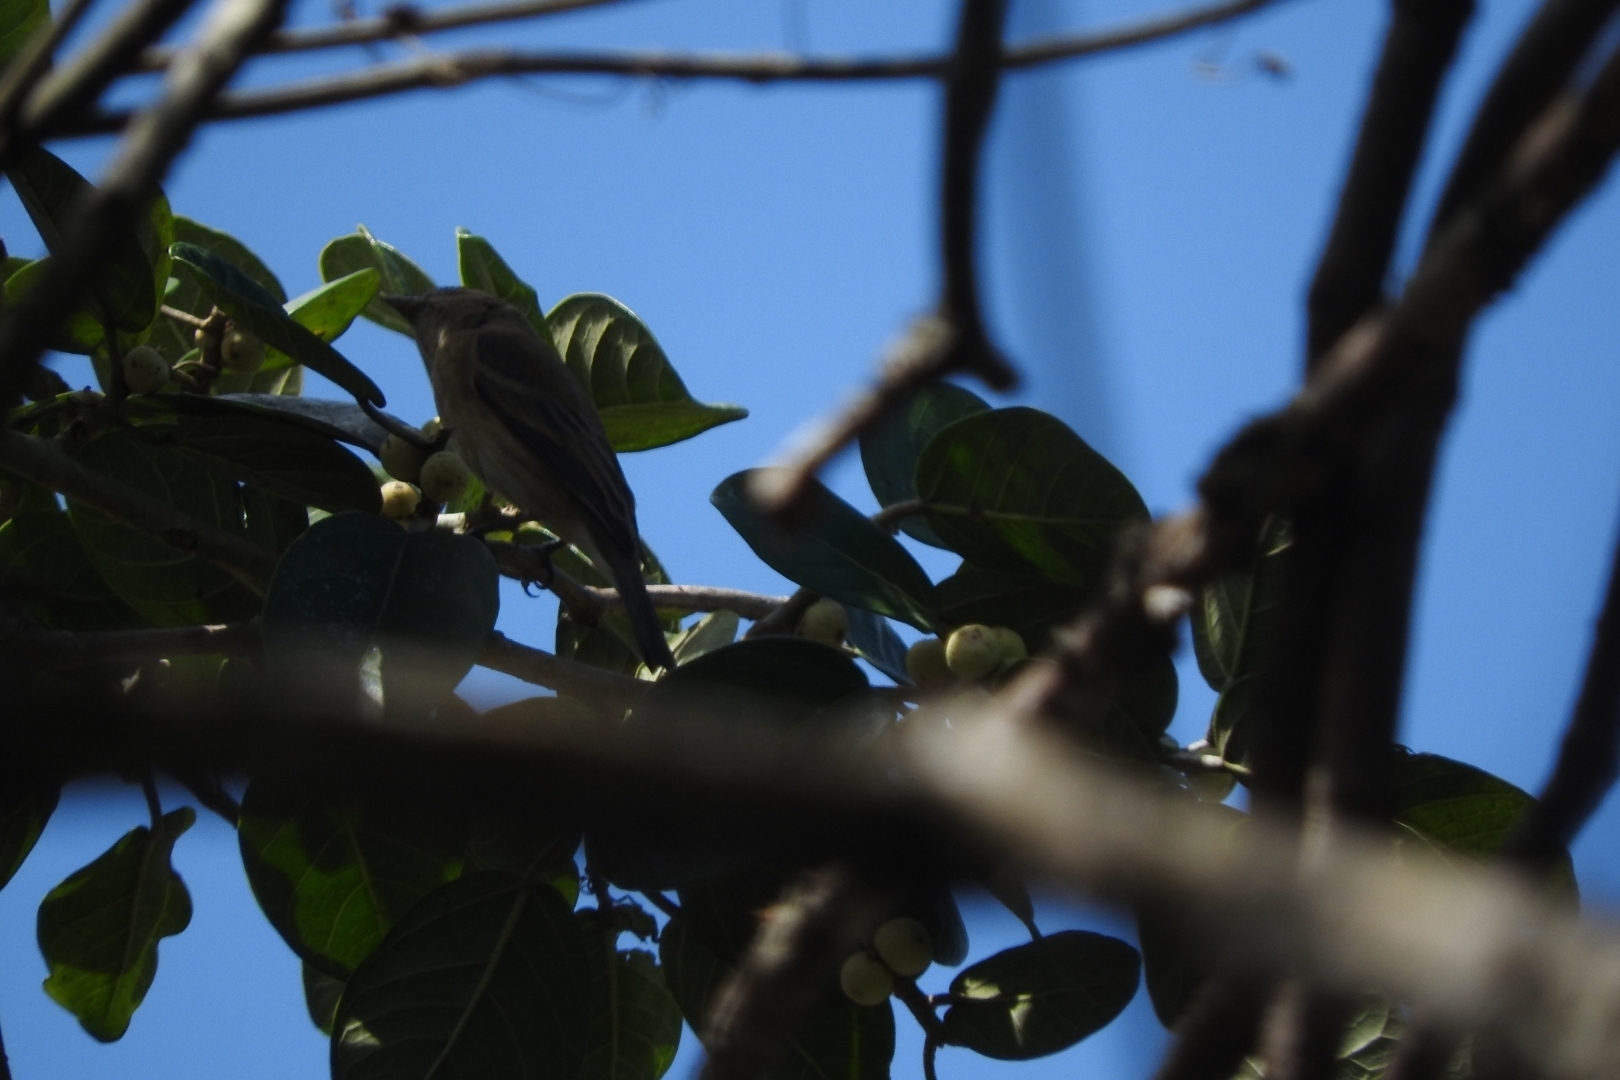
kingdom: Animalia
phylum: Chordata
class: Aves
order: Passeriformes
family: Cardinalidae
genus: Passerina
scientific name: Passerina cyanea
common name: Indigo bunting
